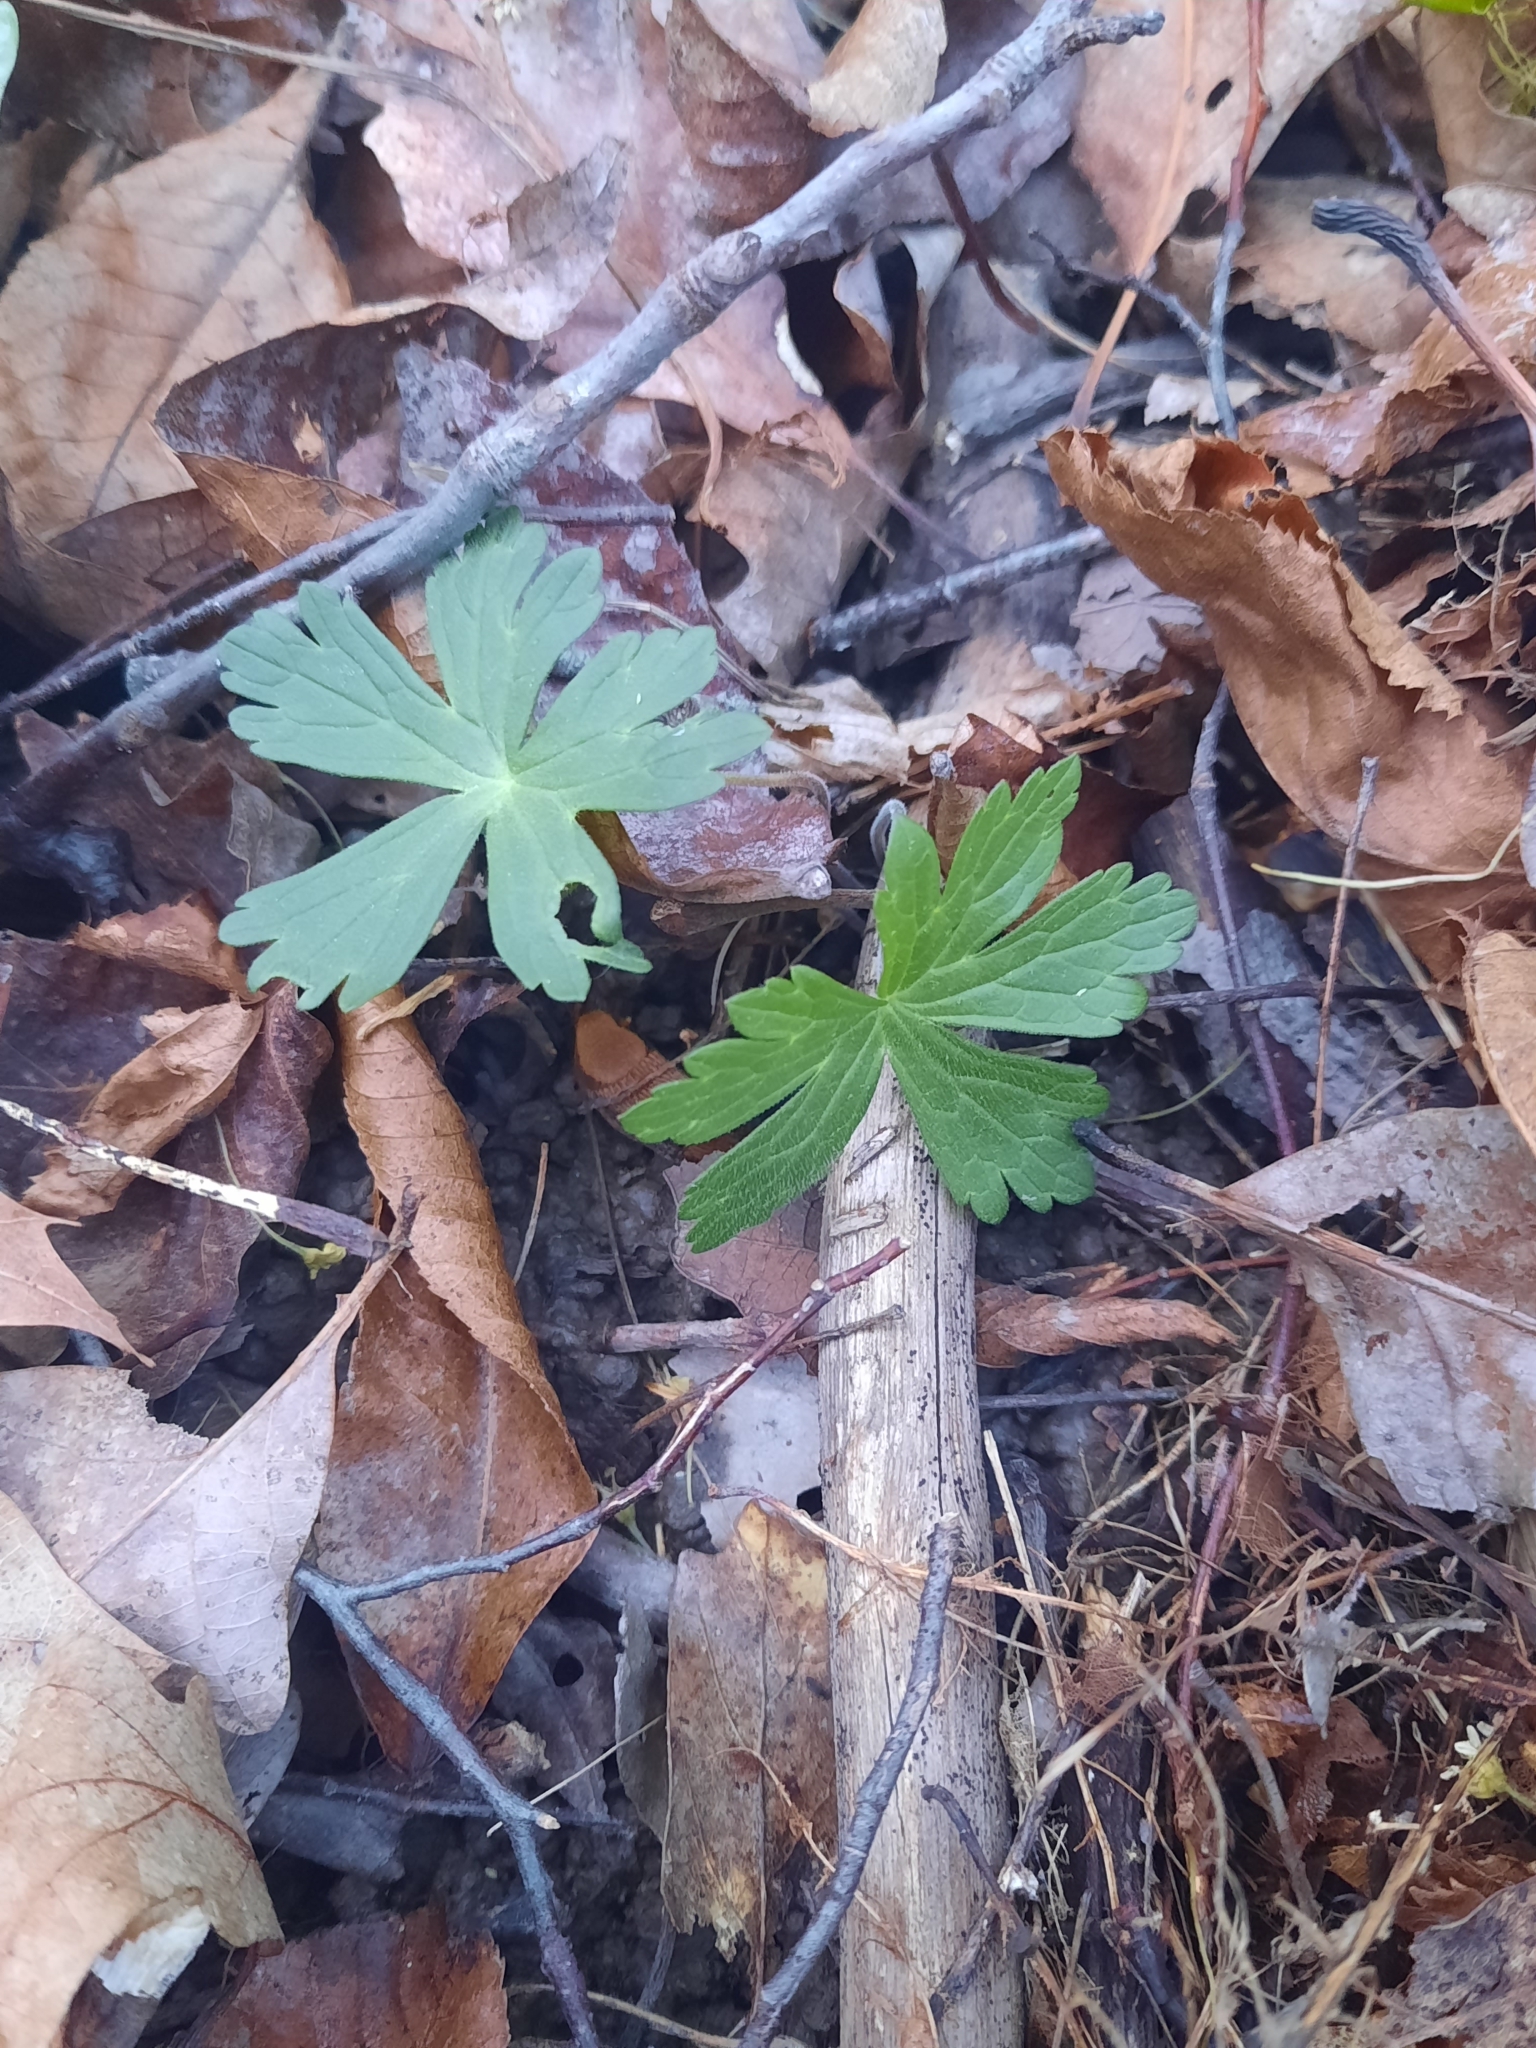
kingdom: Plantae
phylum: Tracheophyta
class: Magnoliopsida
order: Geraniales
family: Geraniaceae
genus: Geranium
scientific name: Geranium maculatum
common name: Spotted geranium
